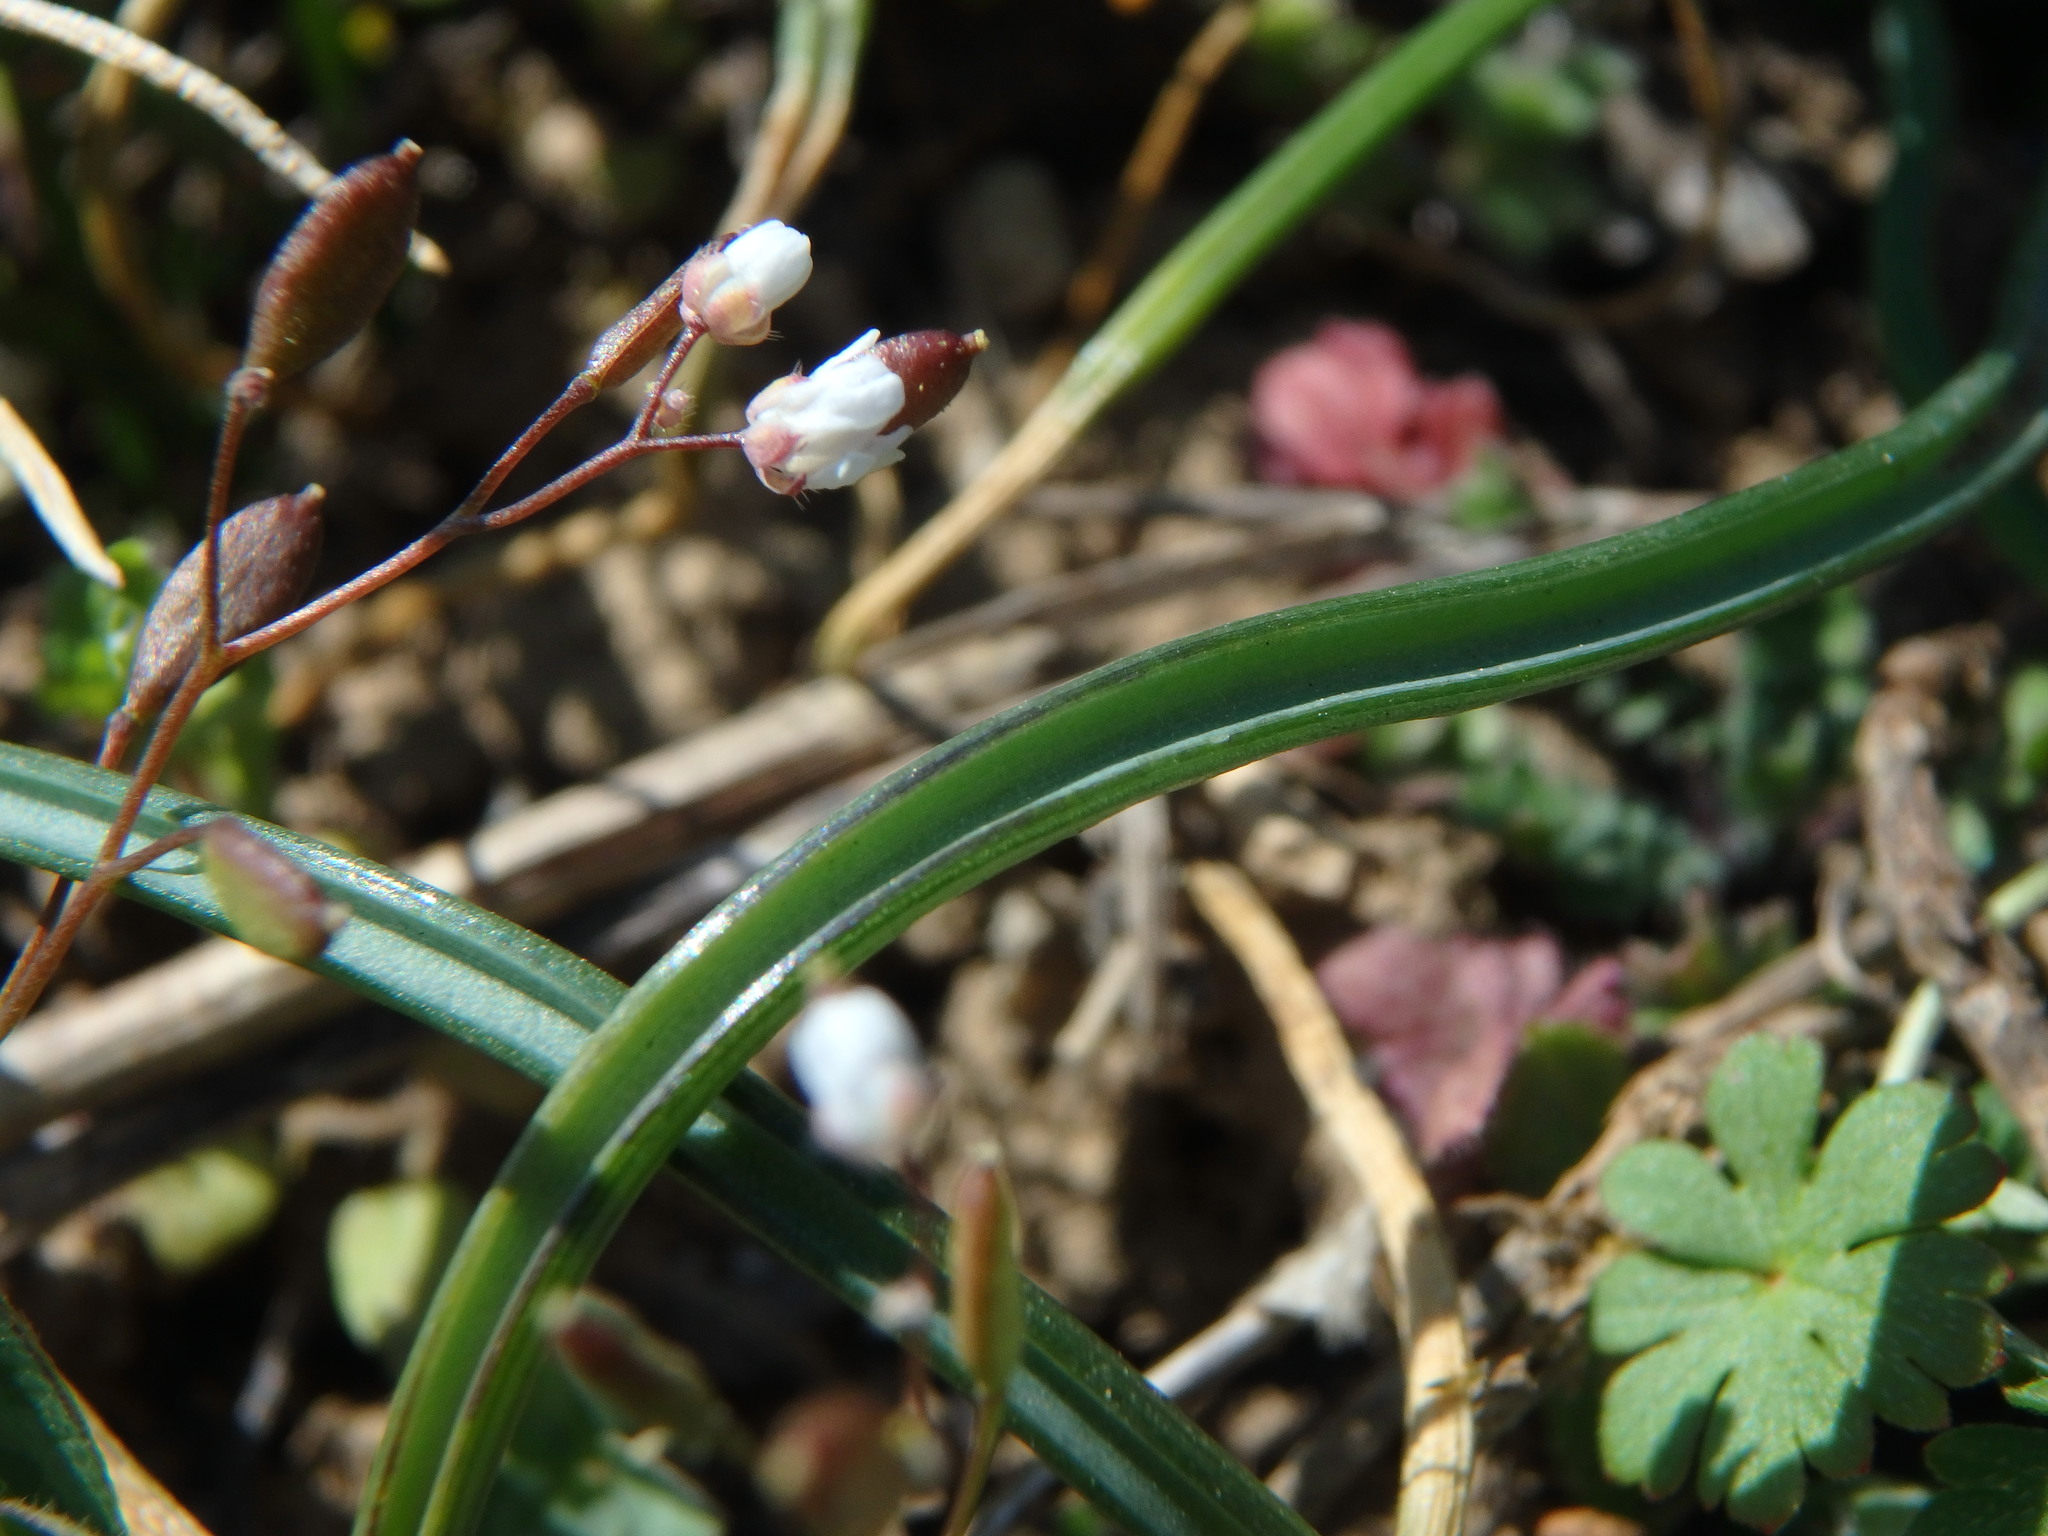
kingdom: Plantae
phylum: Tracheophyta
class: Liliopsida
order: Asparagales
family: Asparagaceae
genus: Muscari
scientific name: Muscari neglectum
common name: Grape-hyacinth
